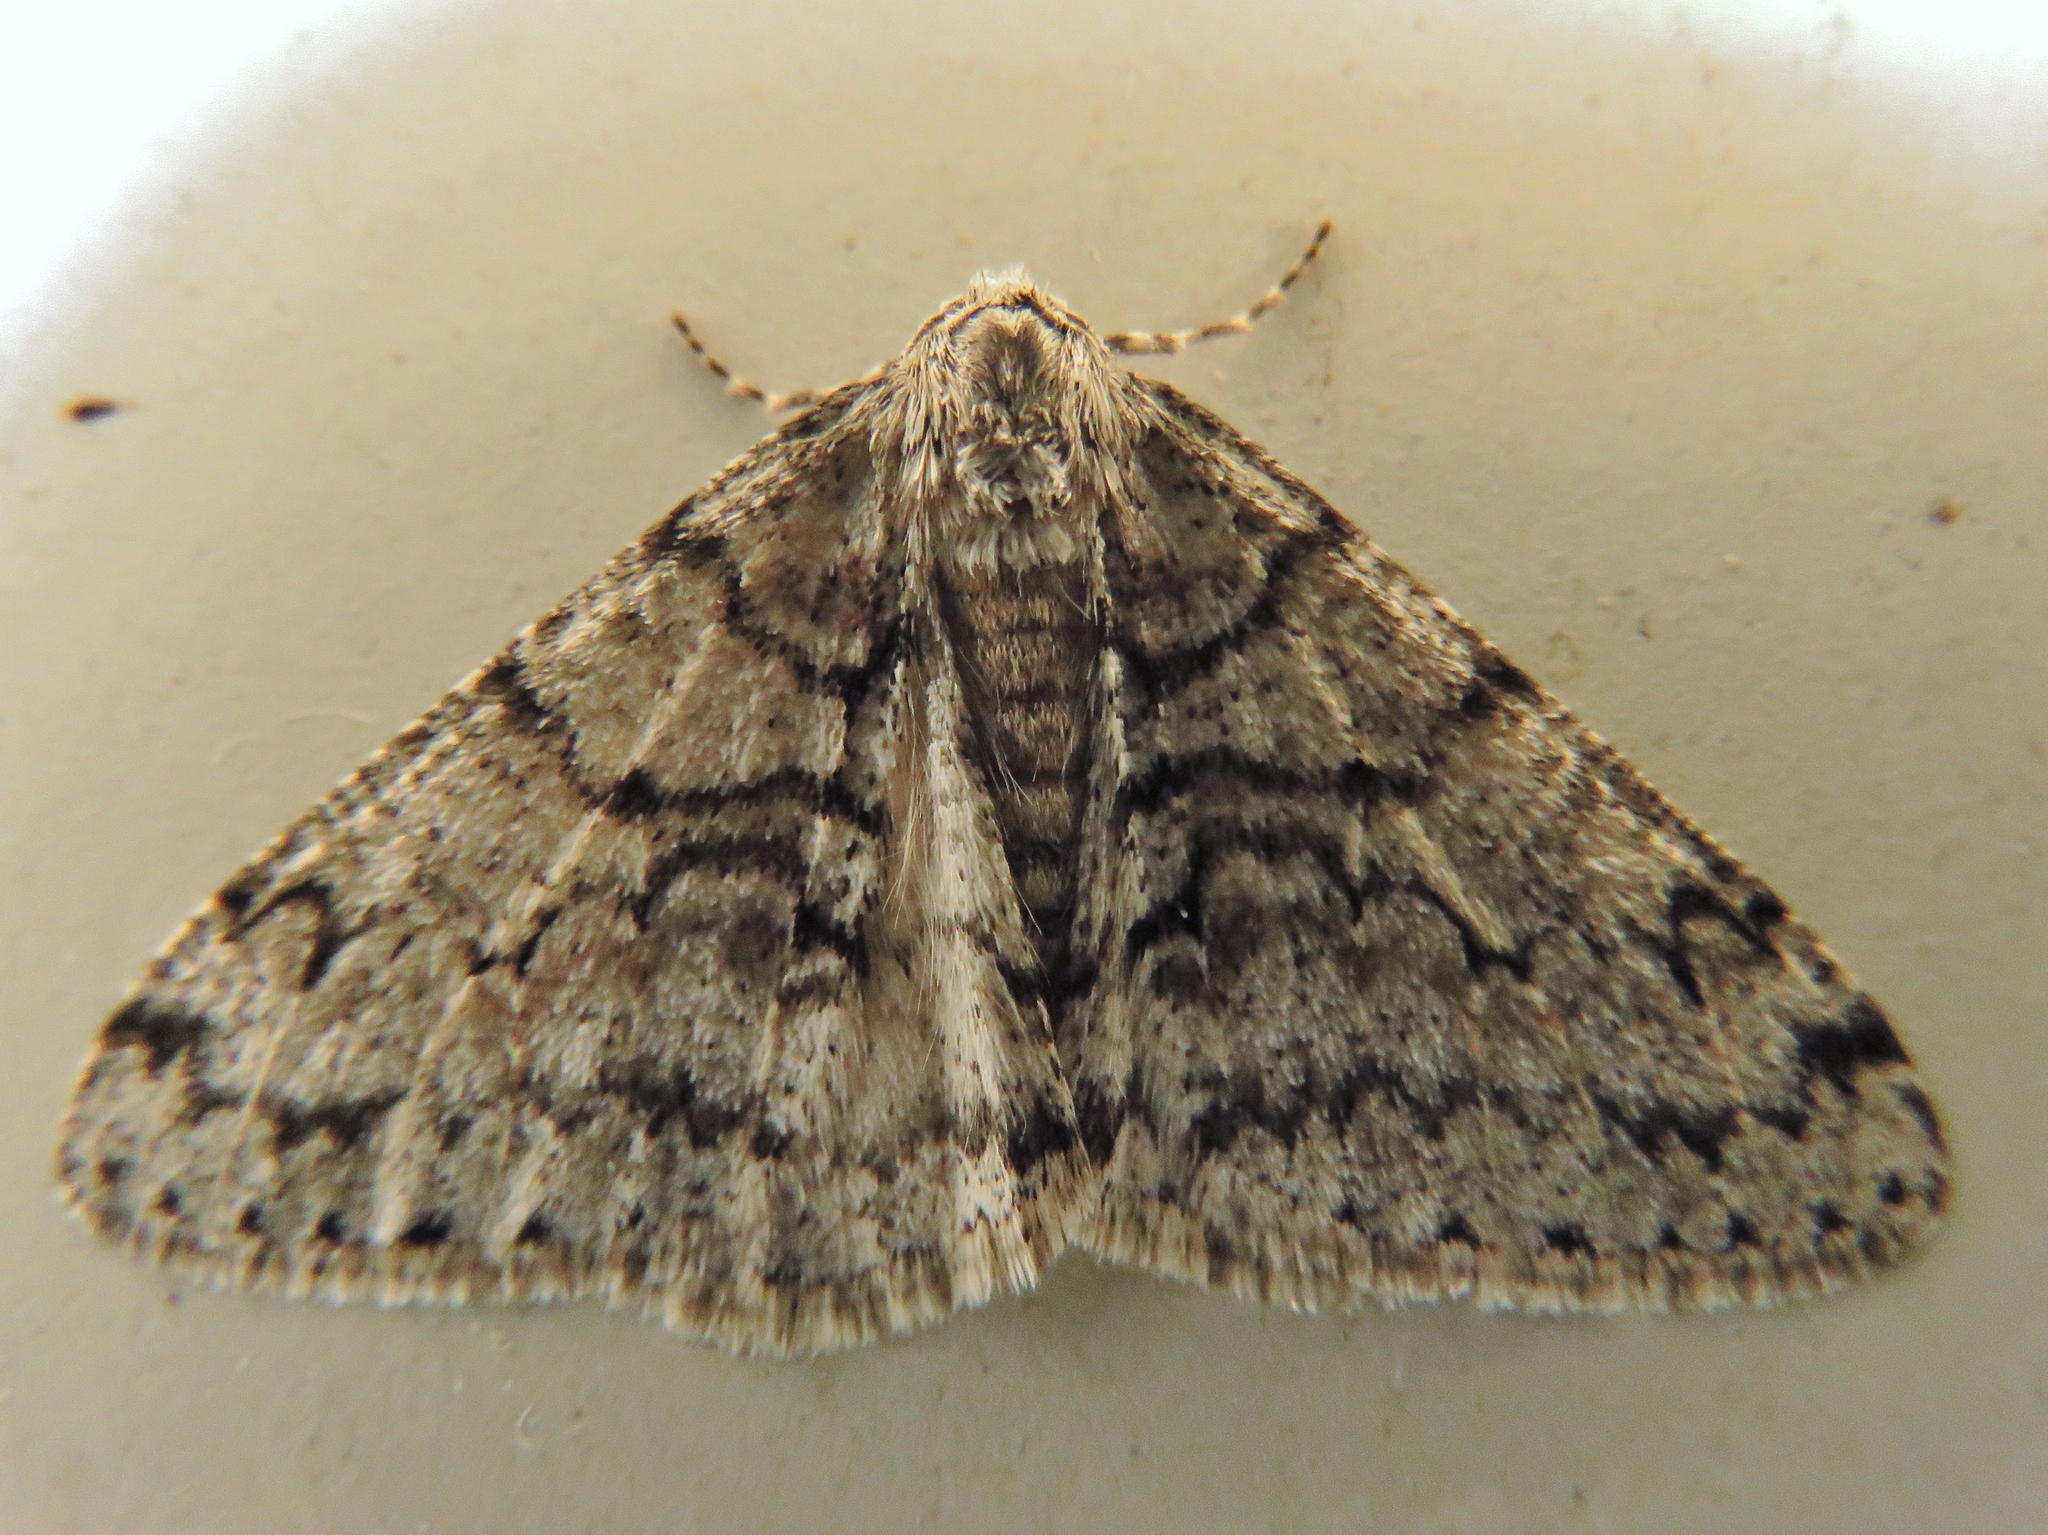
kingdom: Animalia
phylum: Arthropoda
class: Insecta
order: Lepidoptera
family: Geometridae
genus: Phigalia
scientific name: Phigalia denticulata
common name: Toothed phigalia
